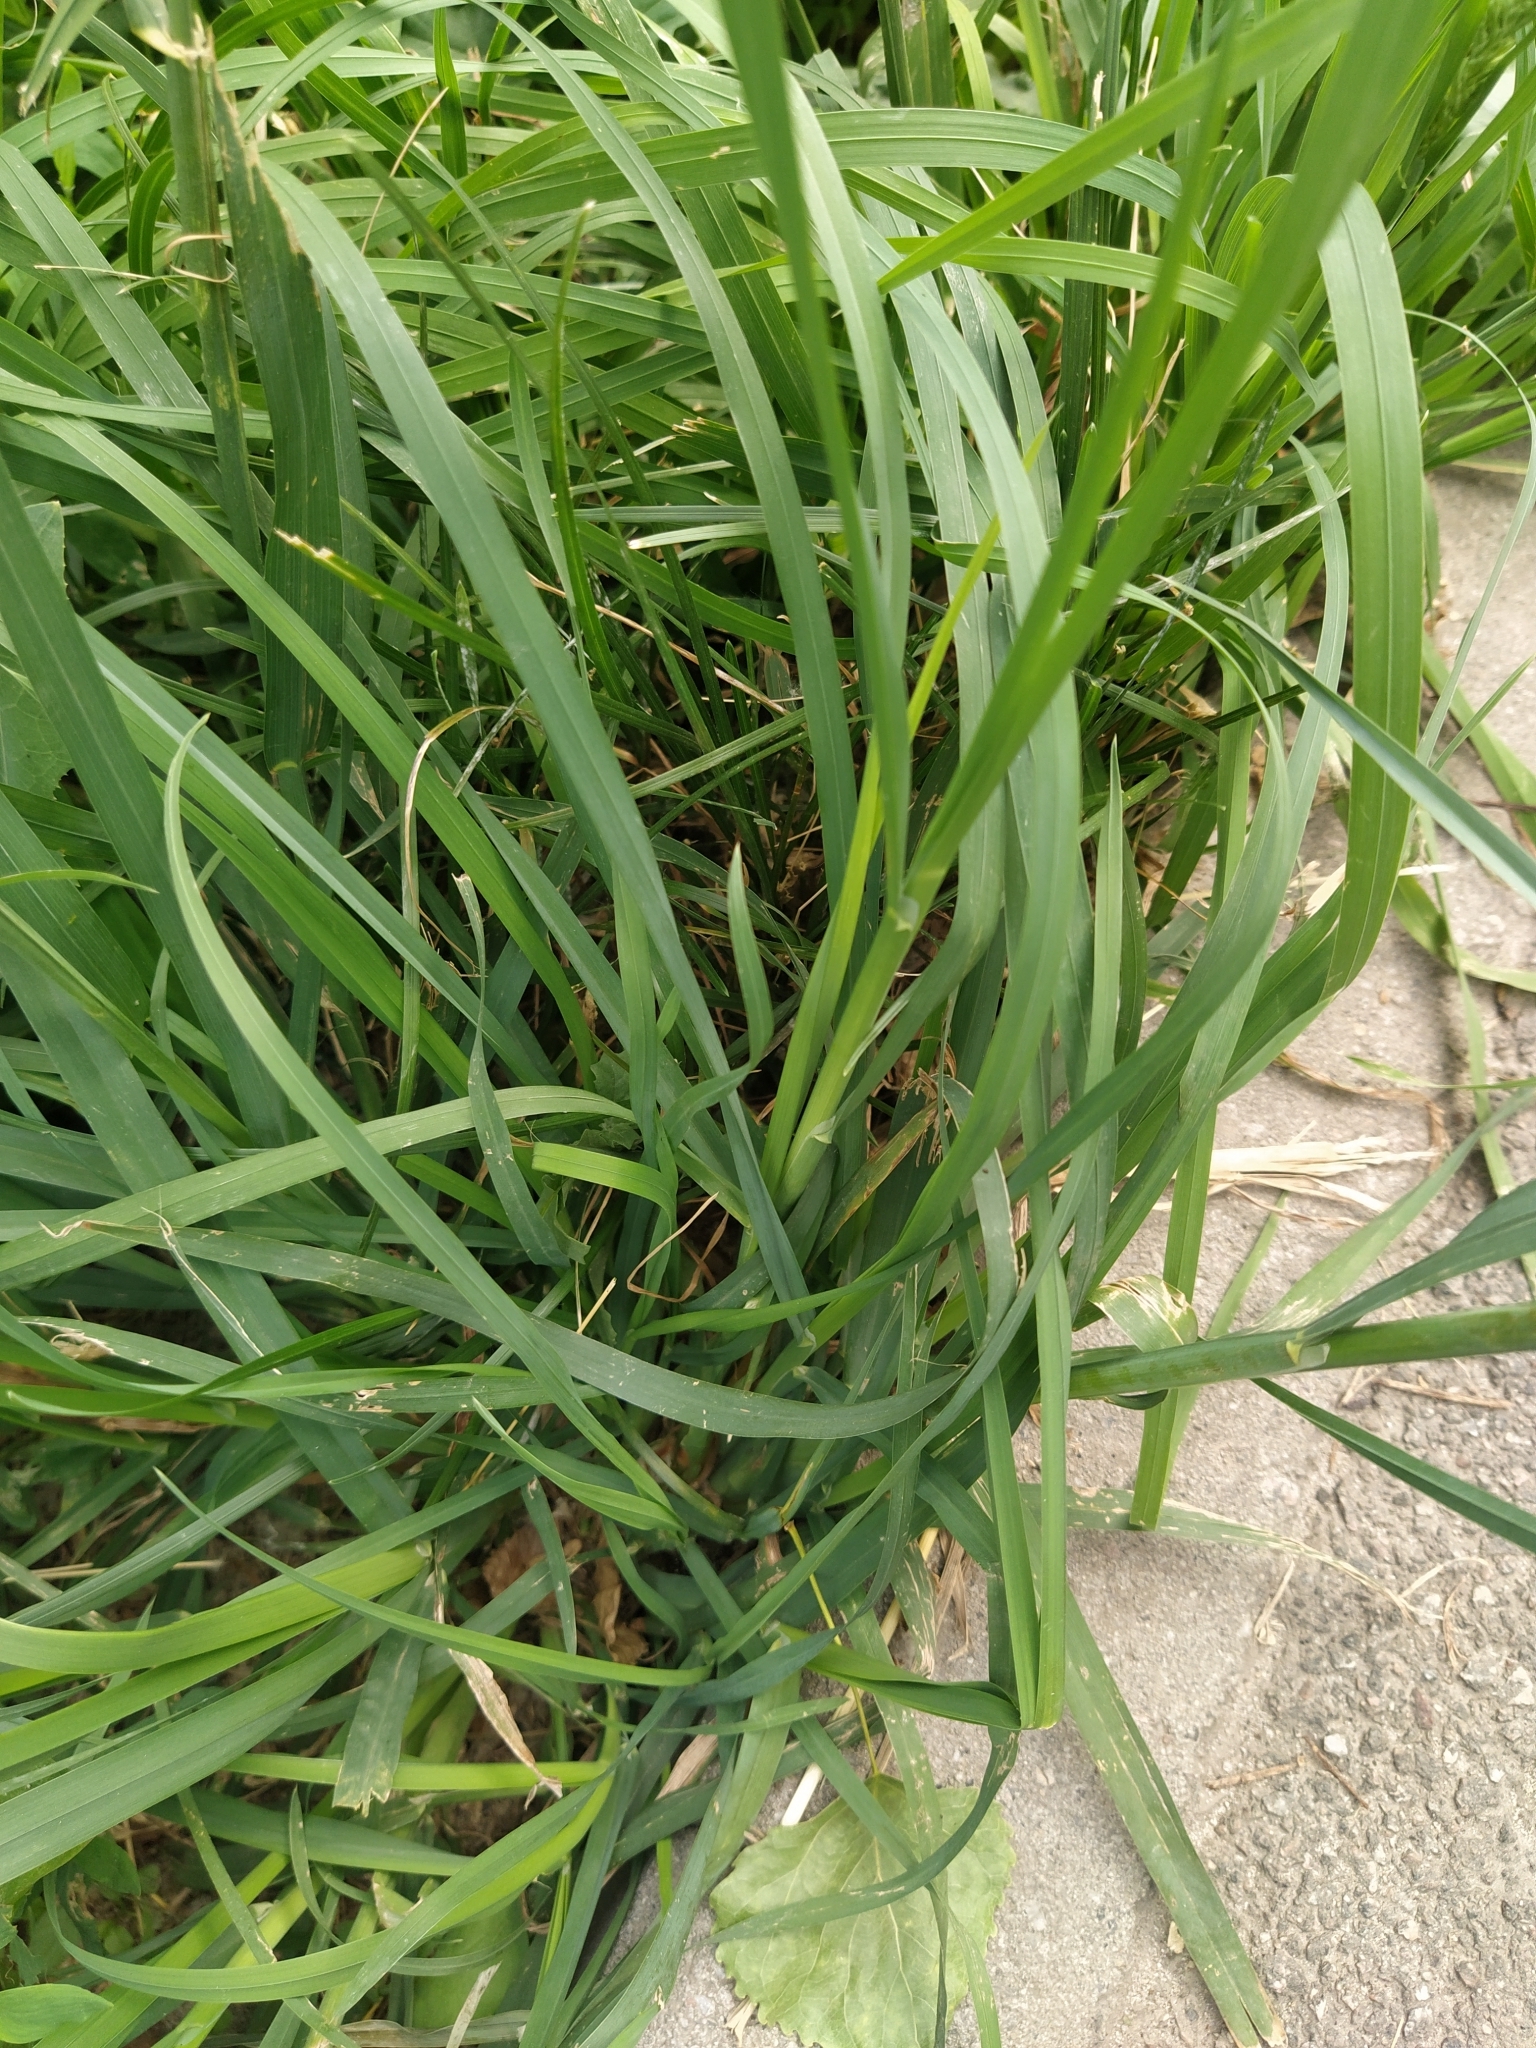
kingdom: Plantae
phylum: Tracheophyta
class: Liliopsida
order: Poales
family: Poaceae
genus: Dactylis
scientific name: Dactylis glomerata
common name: Orchardgrass
